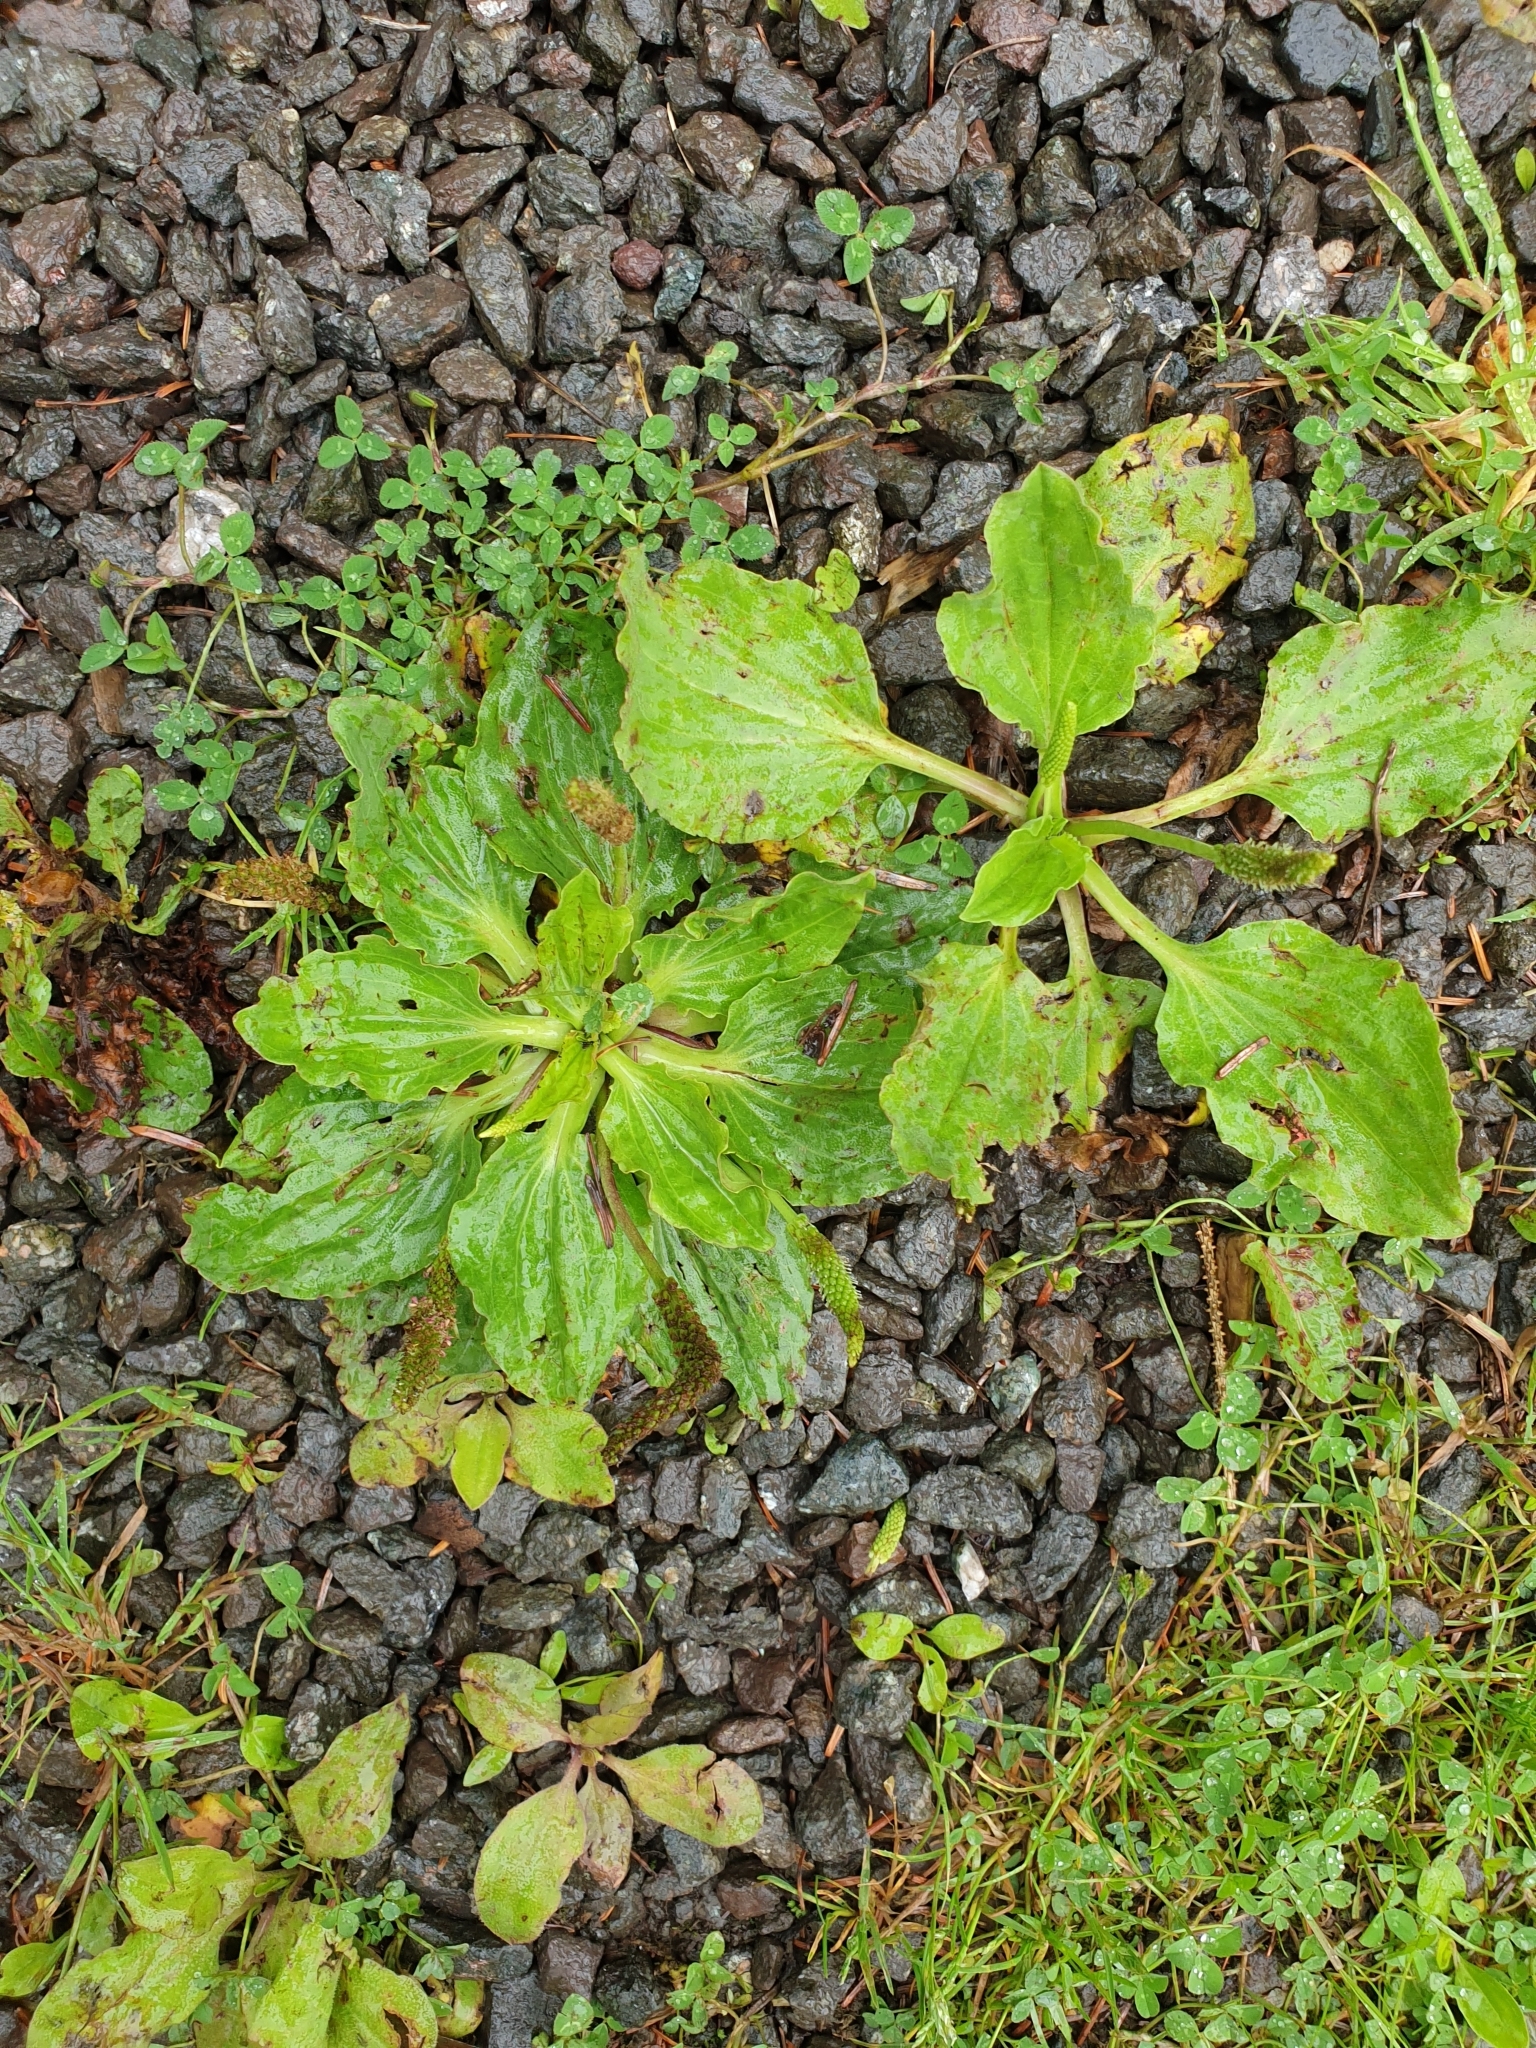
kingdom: Plantae
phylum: Tracheophyta
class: Magnoliopsida
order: Lamiales
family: Plantaginaceae
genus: Plantago
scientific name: Plantago major
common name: Common plantain
